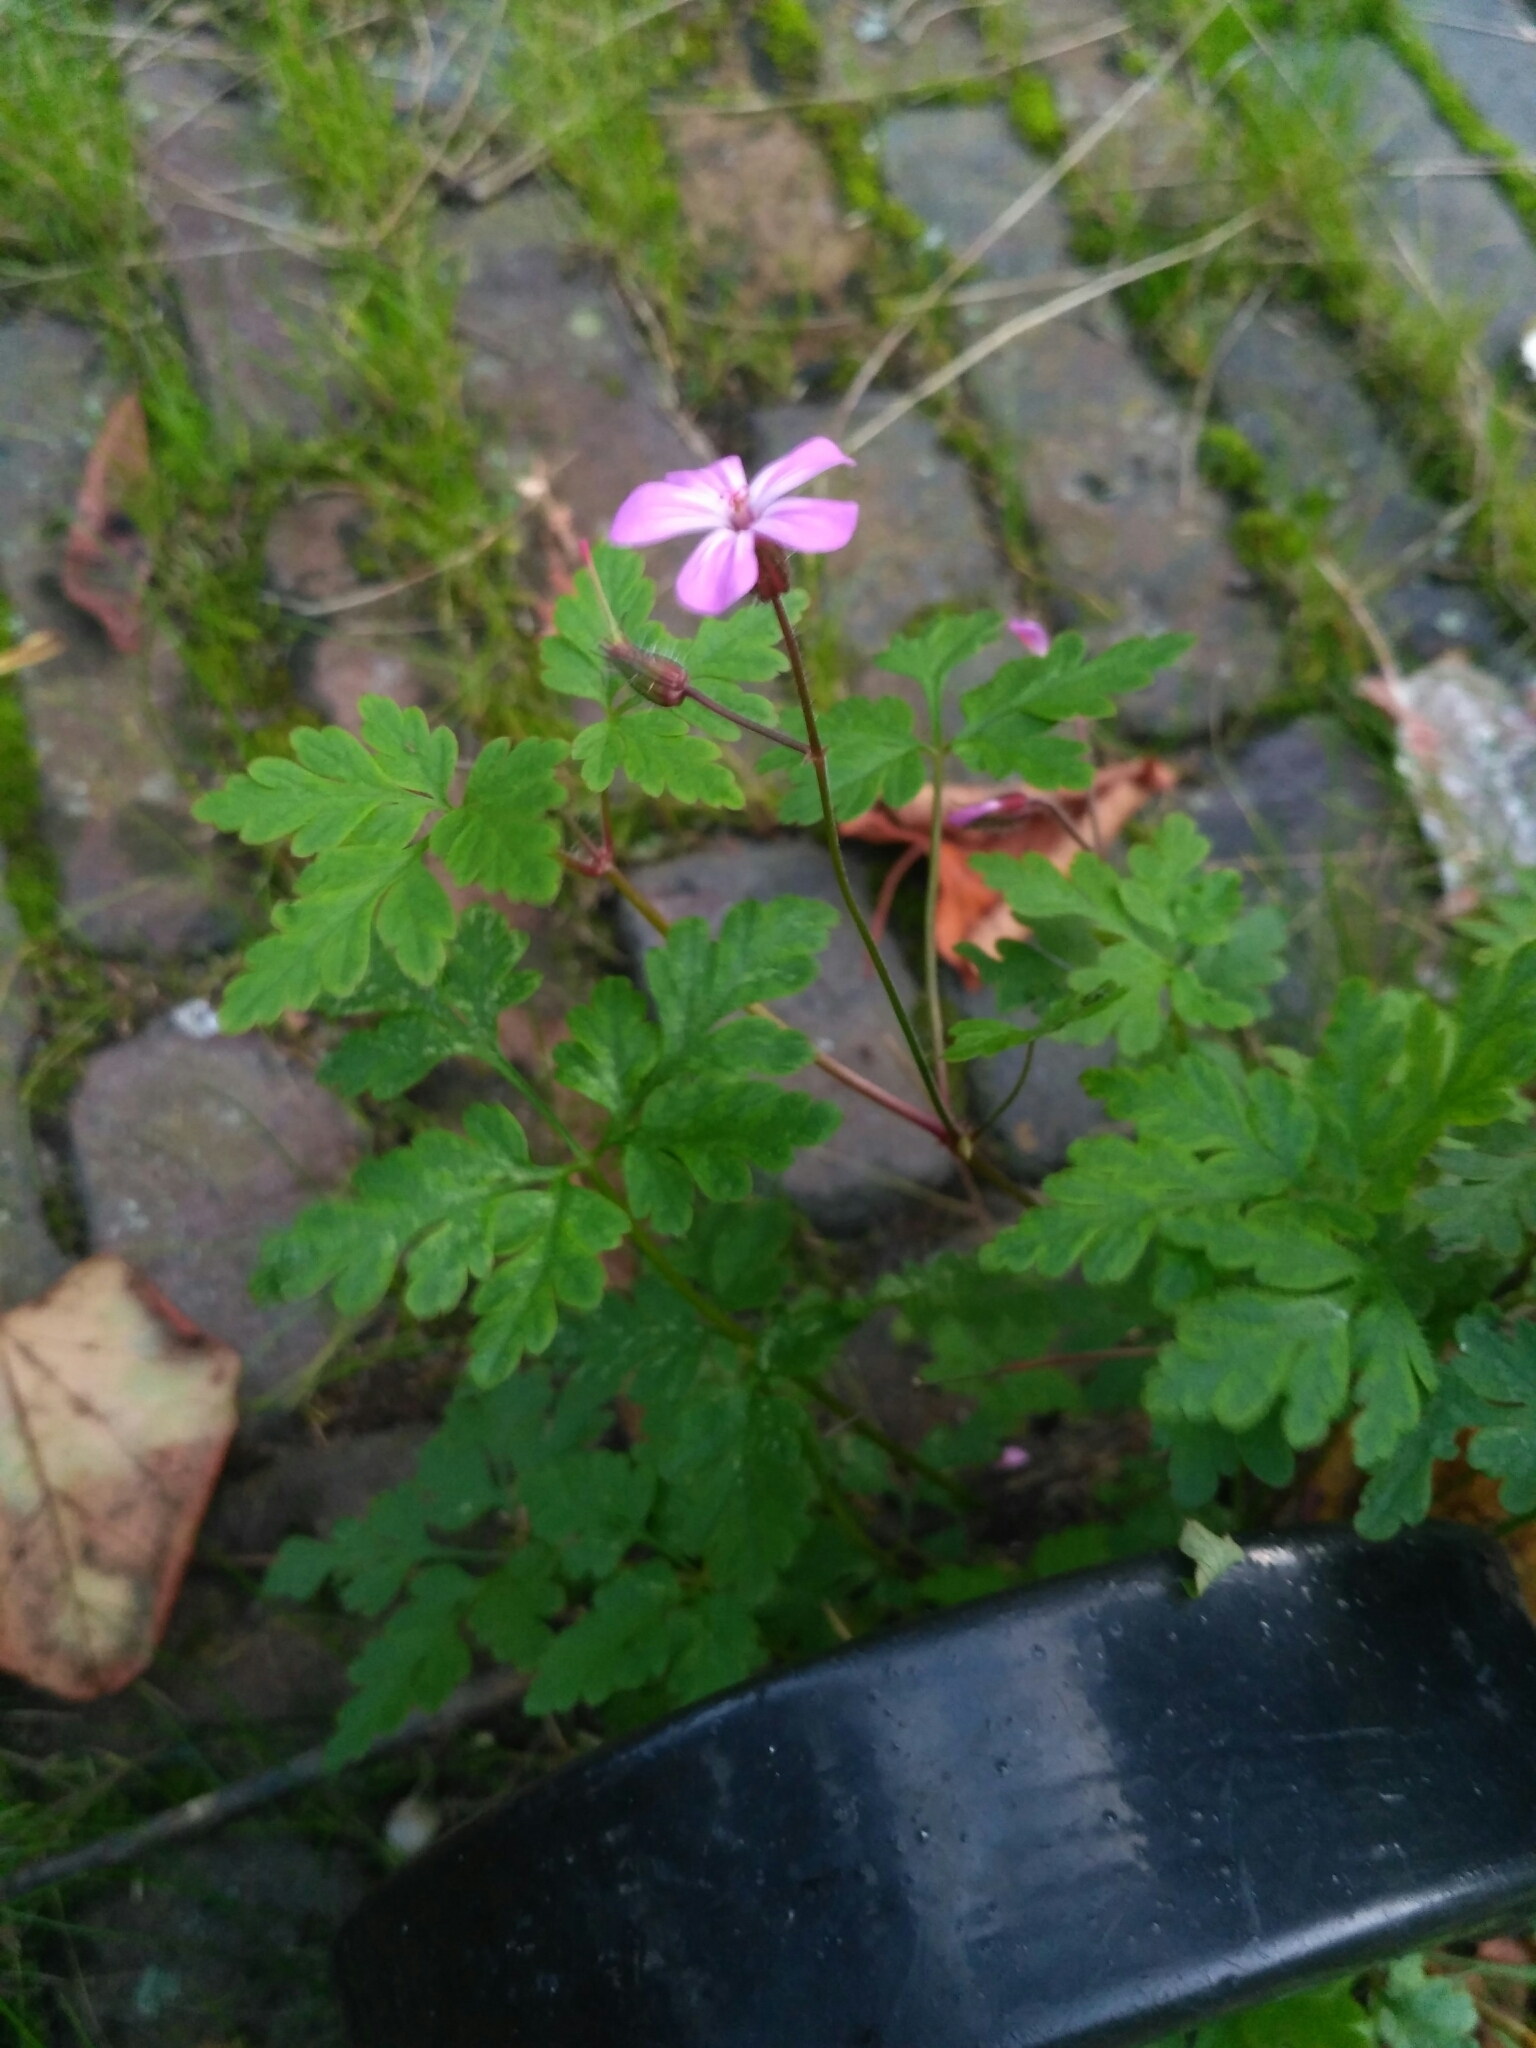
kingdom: Plantae
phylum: Tracheophyta
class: Magnoliopsida
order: Geraniales
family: Geraniaceae
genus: Geranium
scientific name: Geranium robertianum
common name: Herb-robert
